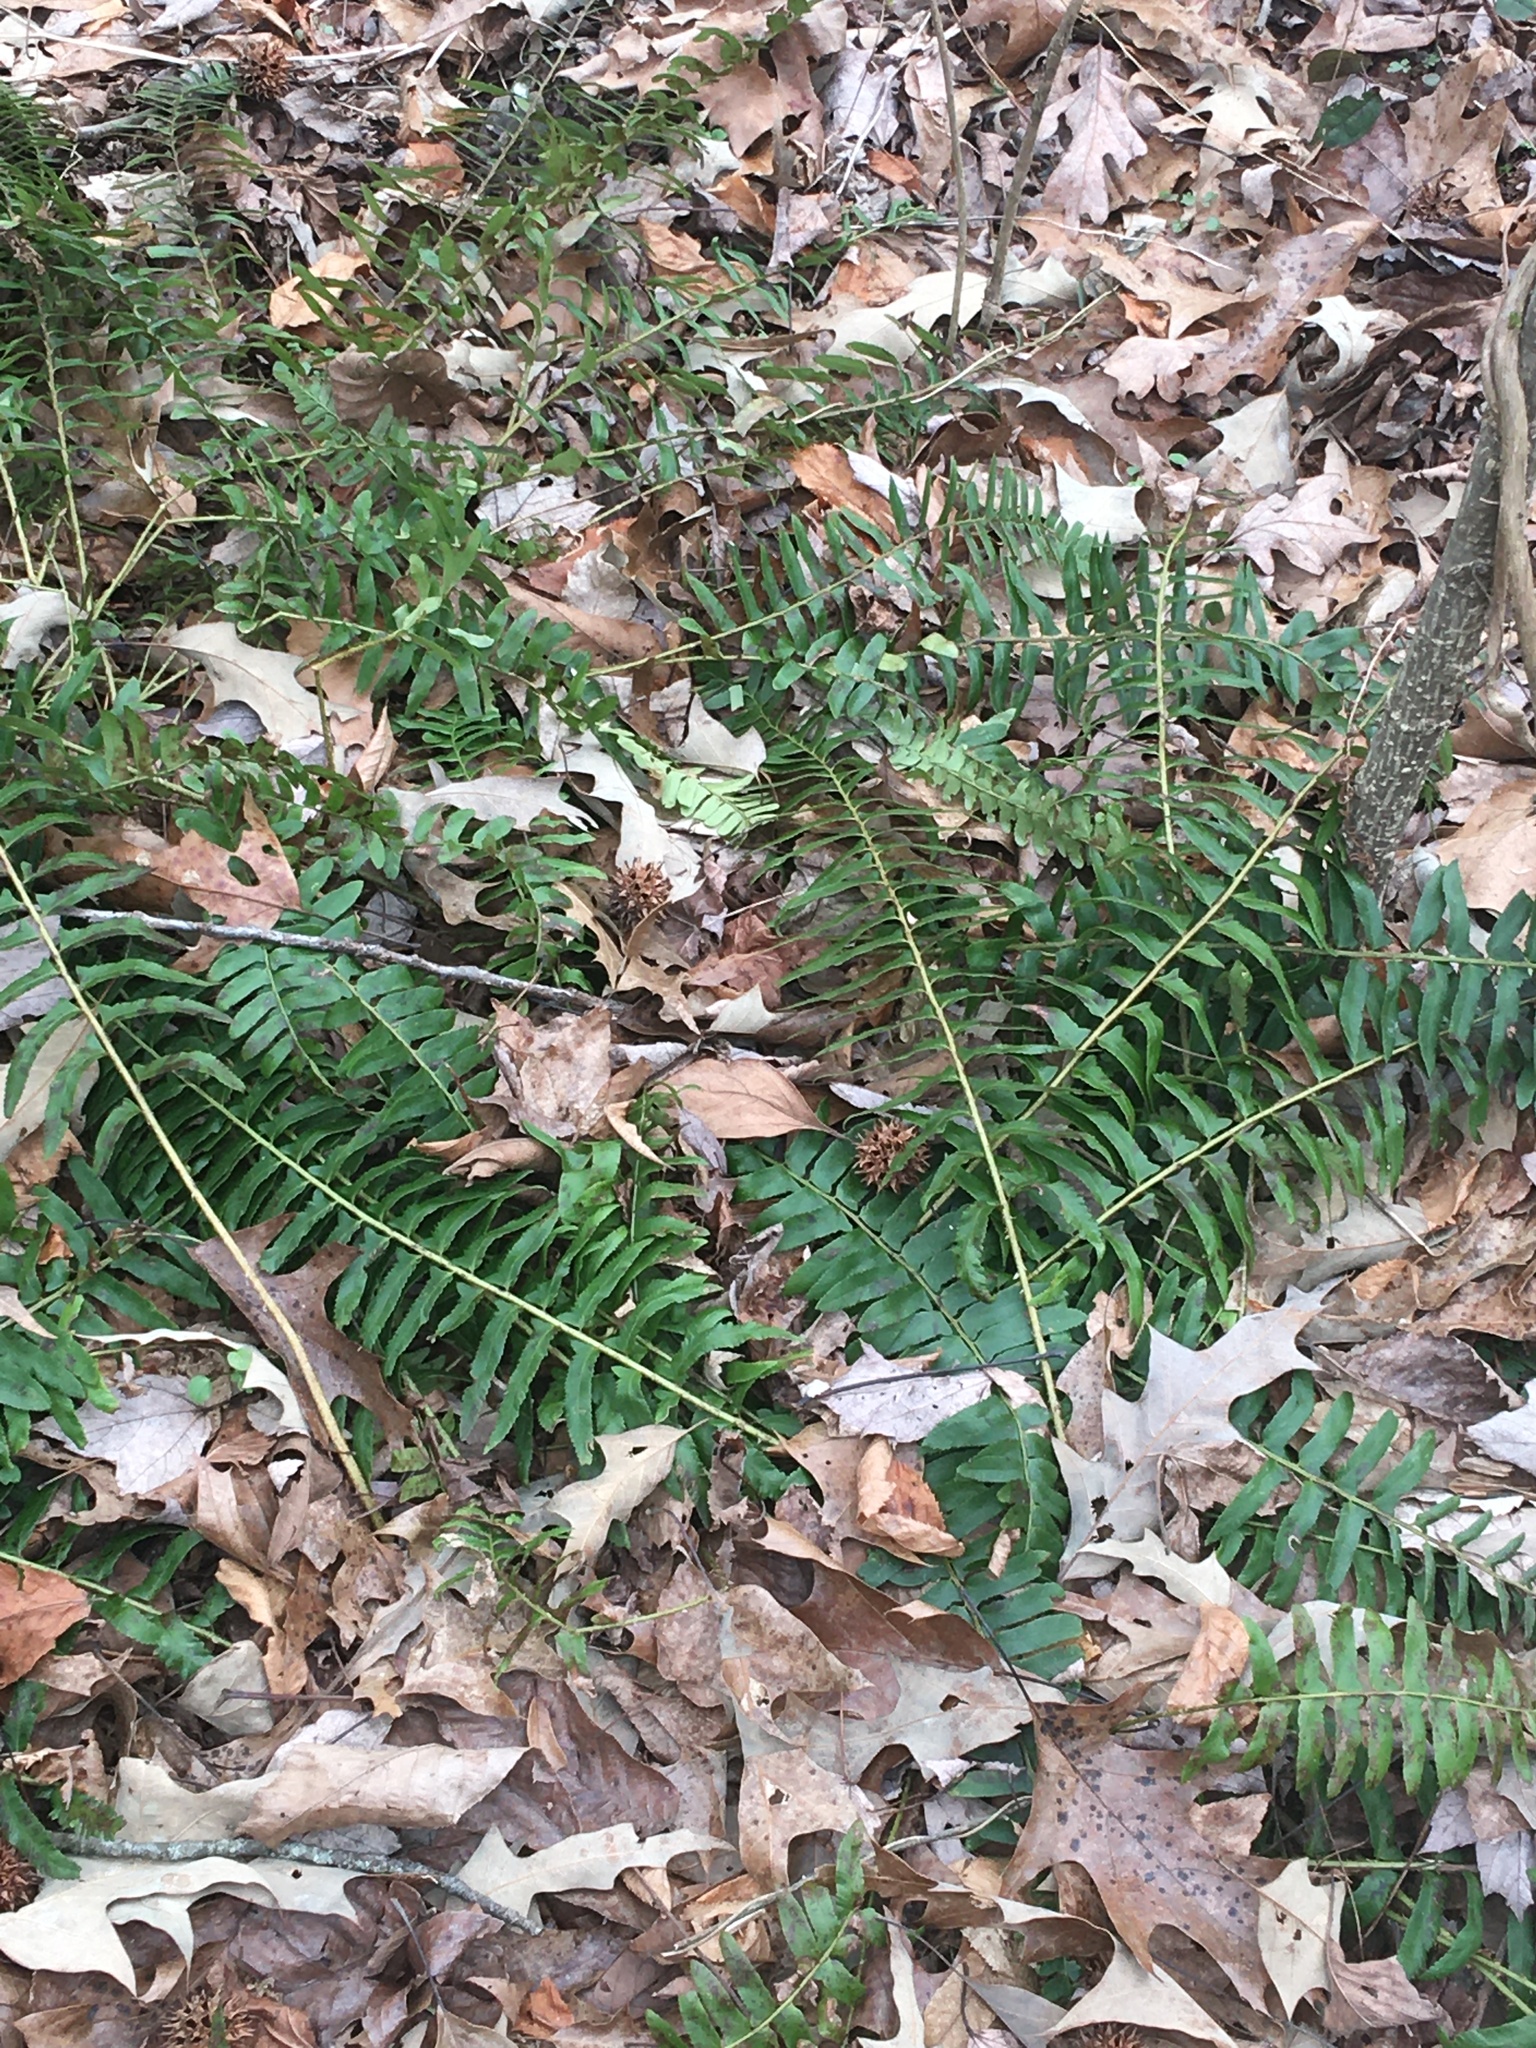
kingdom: Plantae
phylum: Tracheophyta
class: Polypodiopsida
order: Polypodiales
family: Dryopteridaceae
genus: Polystichum
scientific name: Polystichum acrostichoides
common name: Christmas fern
